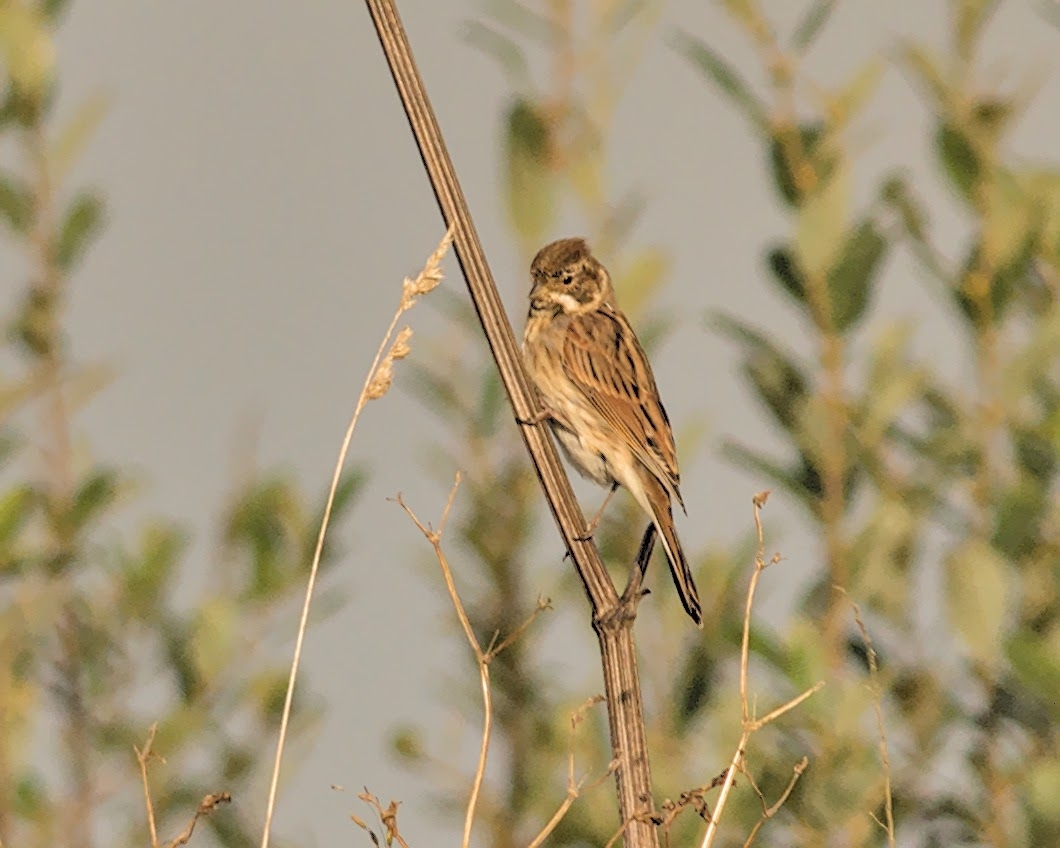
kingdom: Animalia
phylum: Chordata
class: Aves
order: Passeriformes
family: Emberizidae
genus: Emberiza
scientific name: Emberiza schoeniclus
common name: Reed bunting
